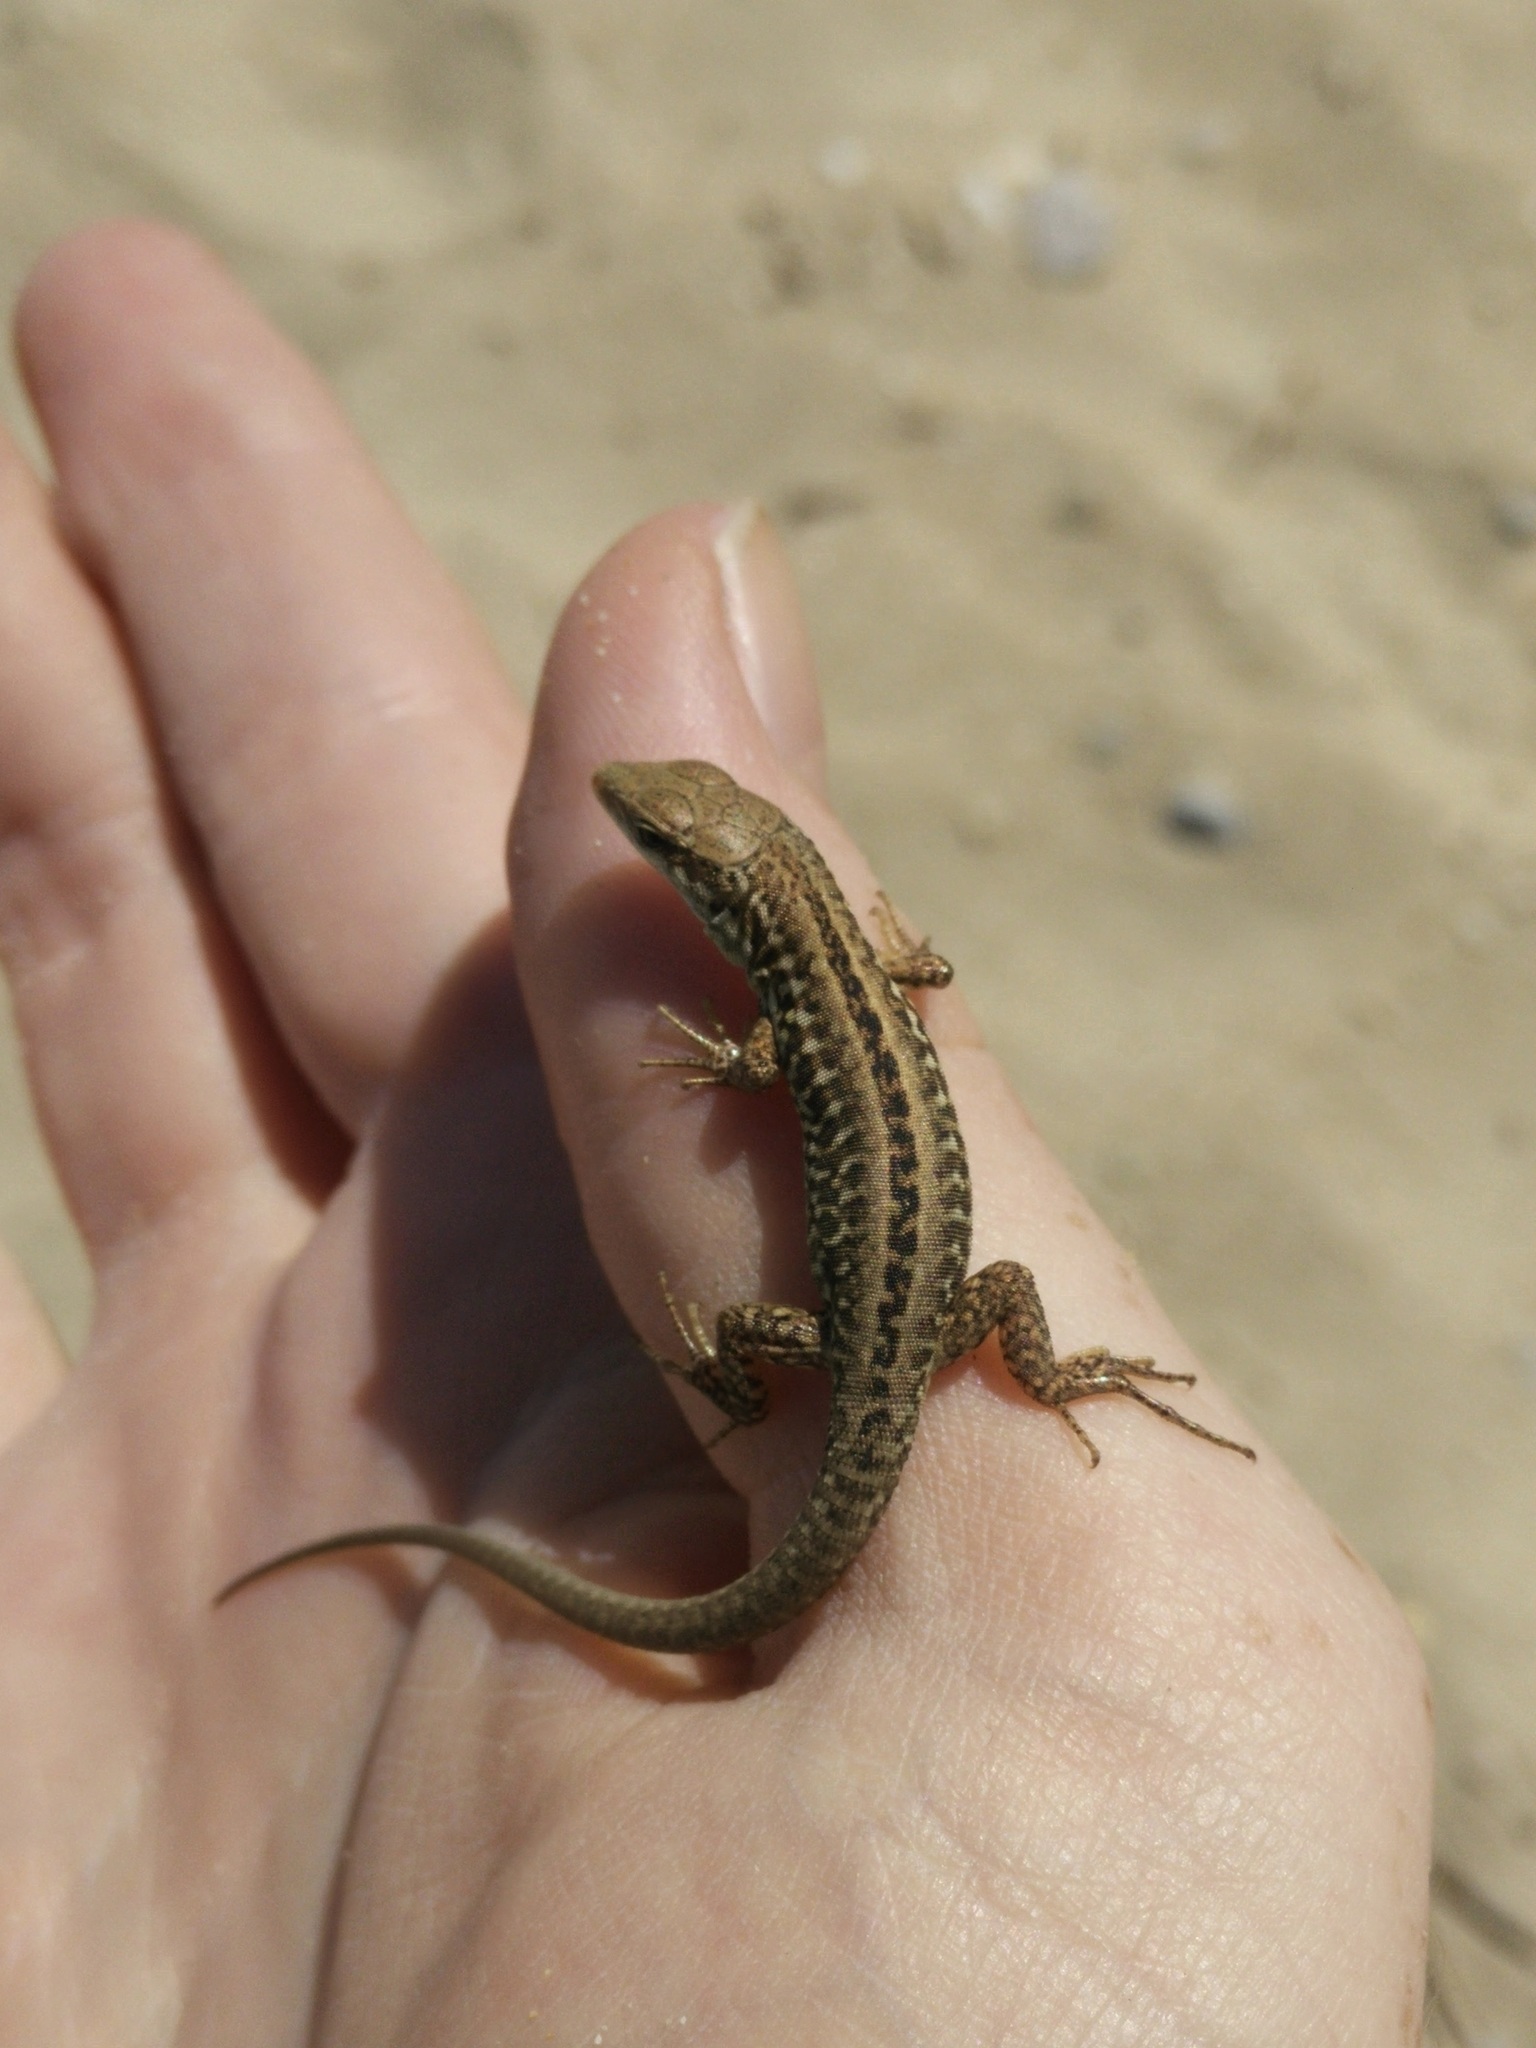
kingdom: Animalia
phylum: Chordata
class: Squamata
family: Lacertidae
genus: Podarcis
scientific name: Podarcis siculus
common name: Italian wall lizard
